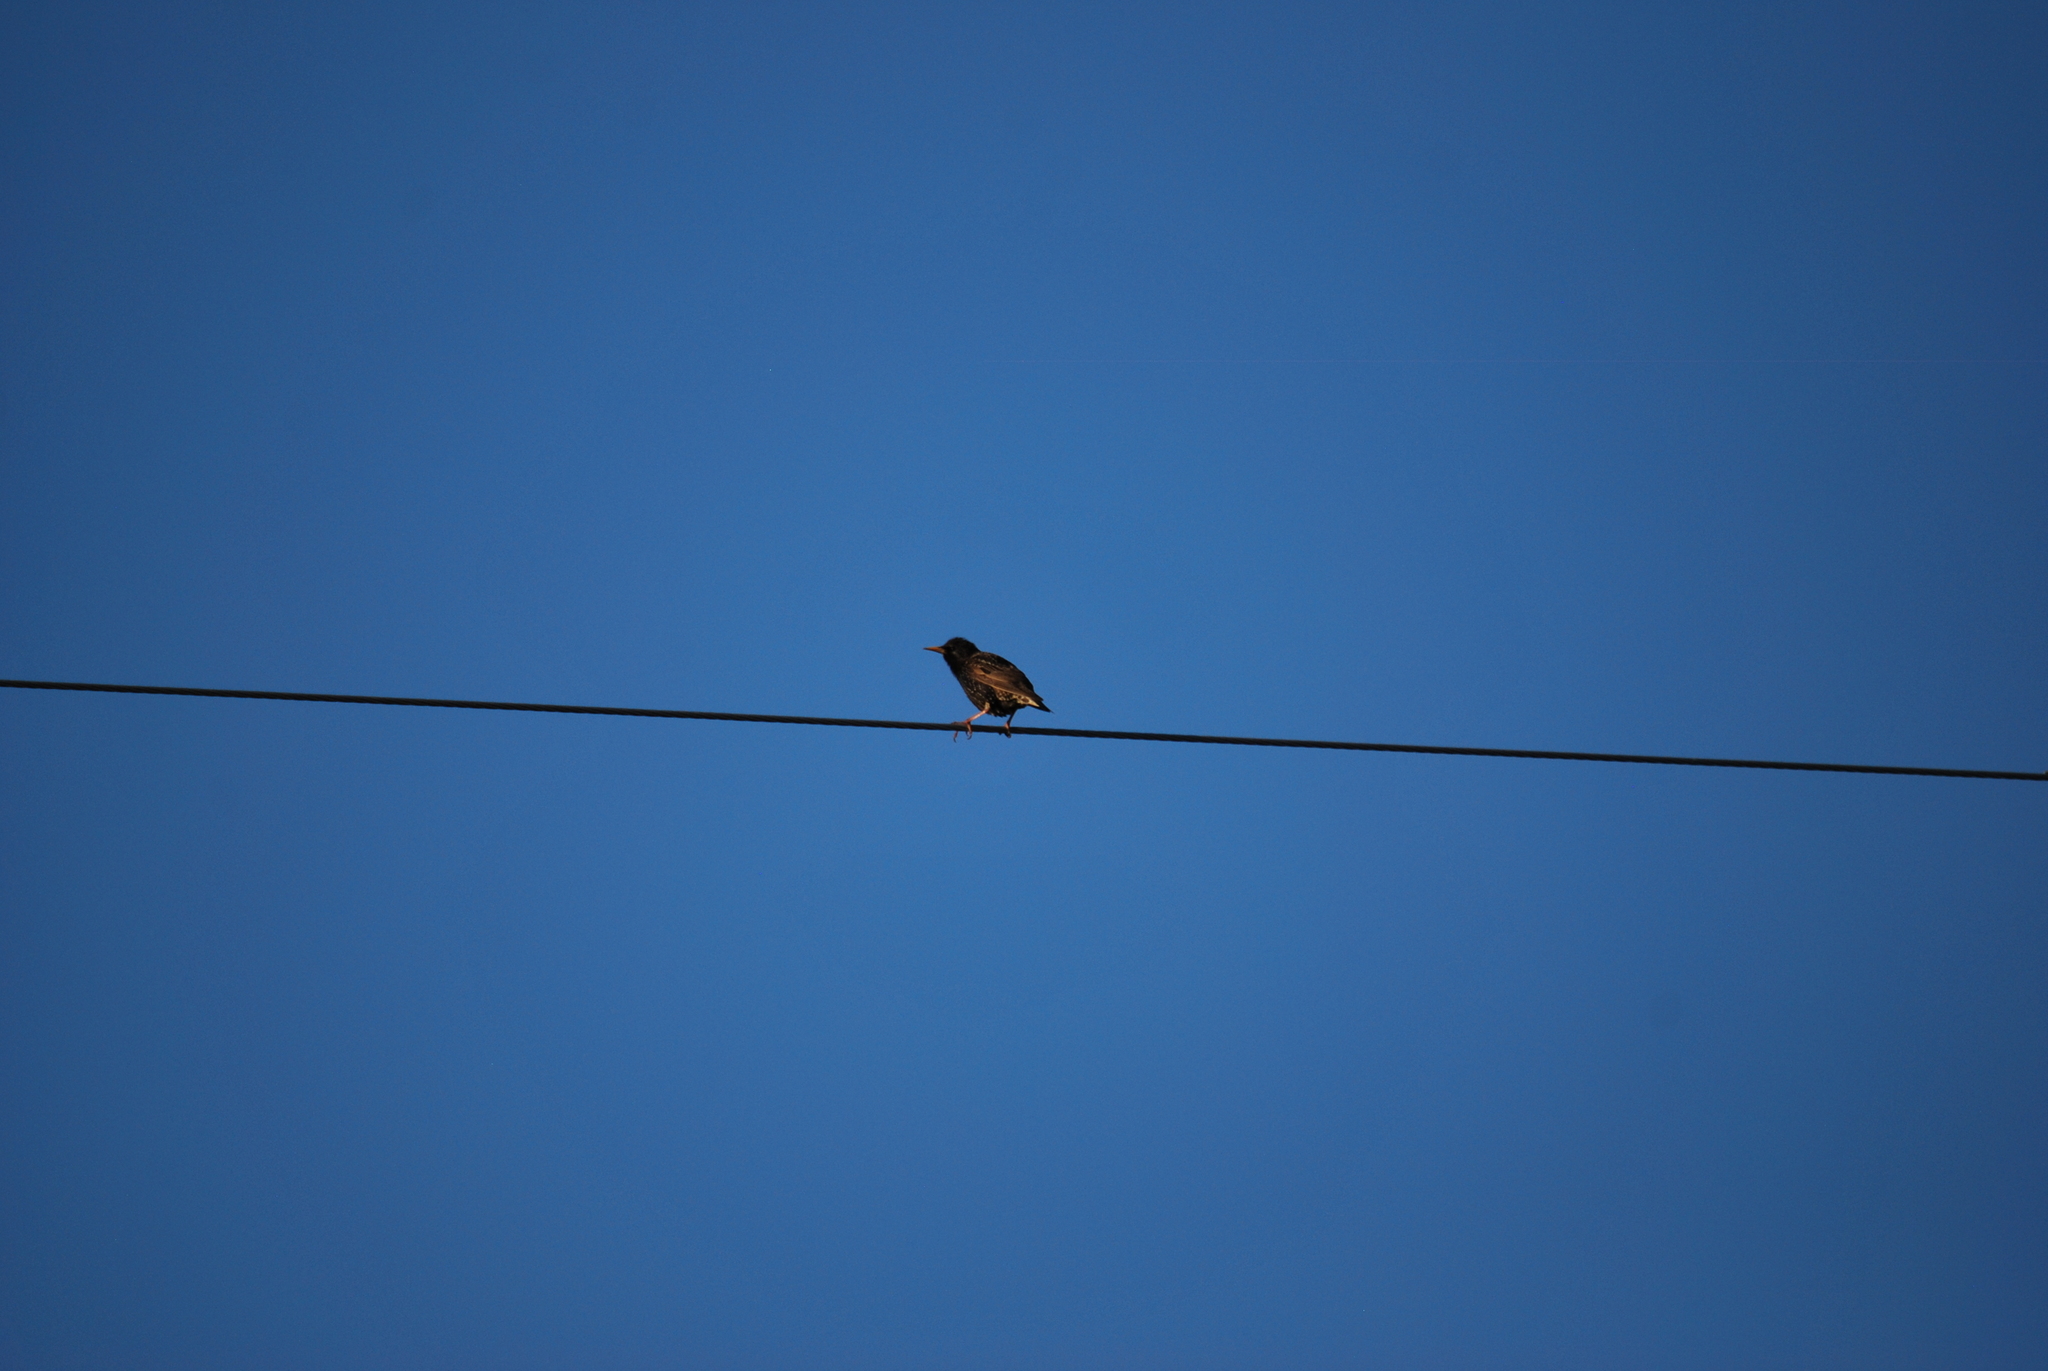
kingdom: Animalia
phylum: Chordata
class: Aves
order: Passeriformes
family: Sturnidae
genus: Sturnus
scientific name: Sturnus vulgaris
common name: Common starling
